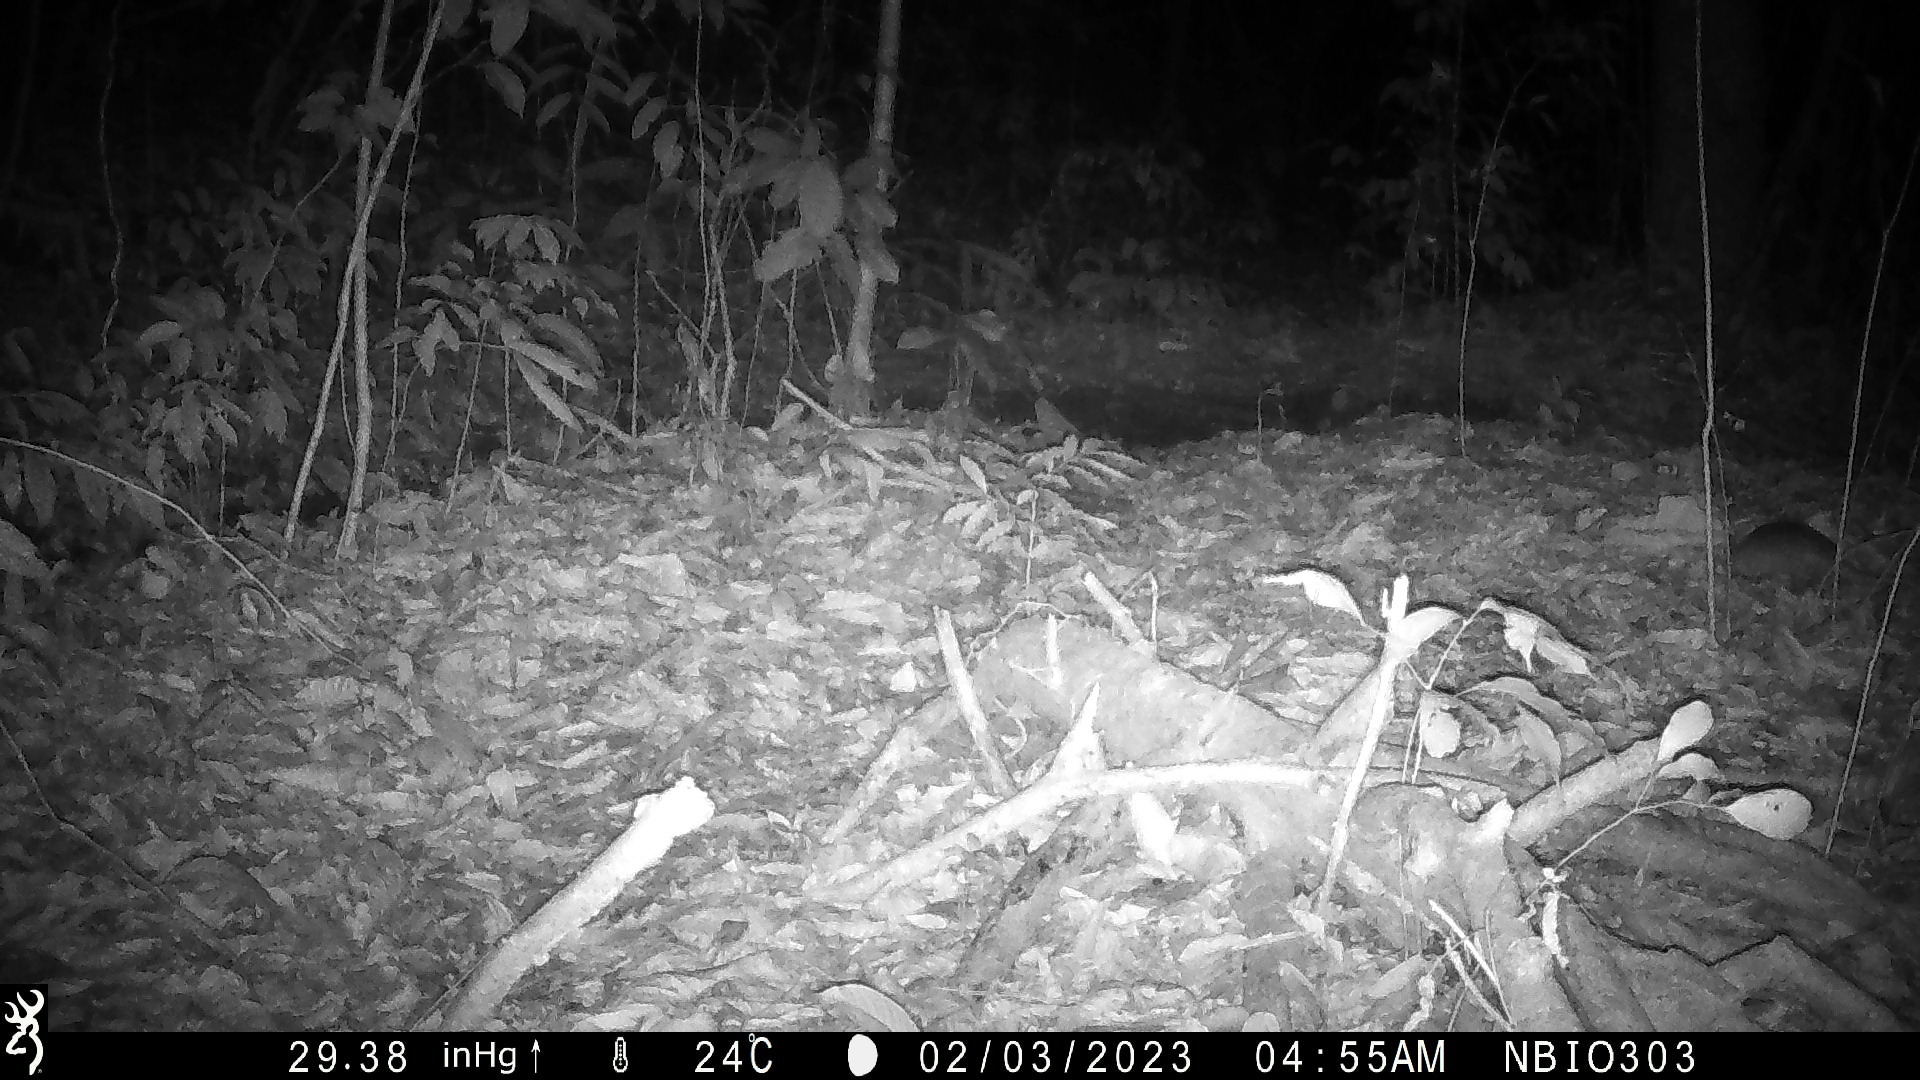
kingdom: Animalia
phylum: Chordata
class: Mammalia
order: Cingulata
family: Dasypodidae
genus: Dasypus
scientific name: Dasypus novemcinctus
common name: Nine-banded armadillo
